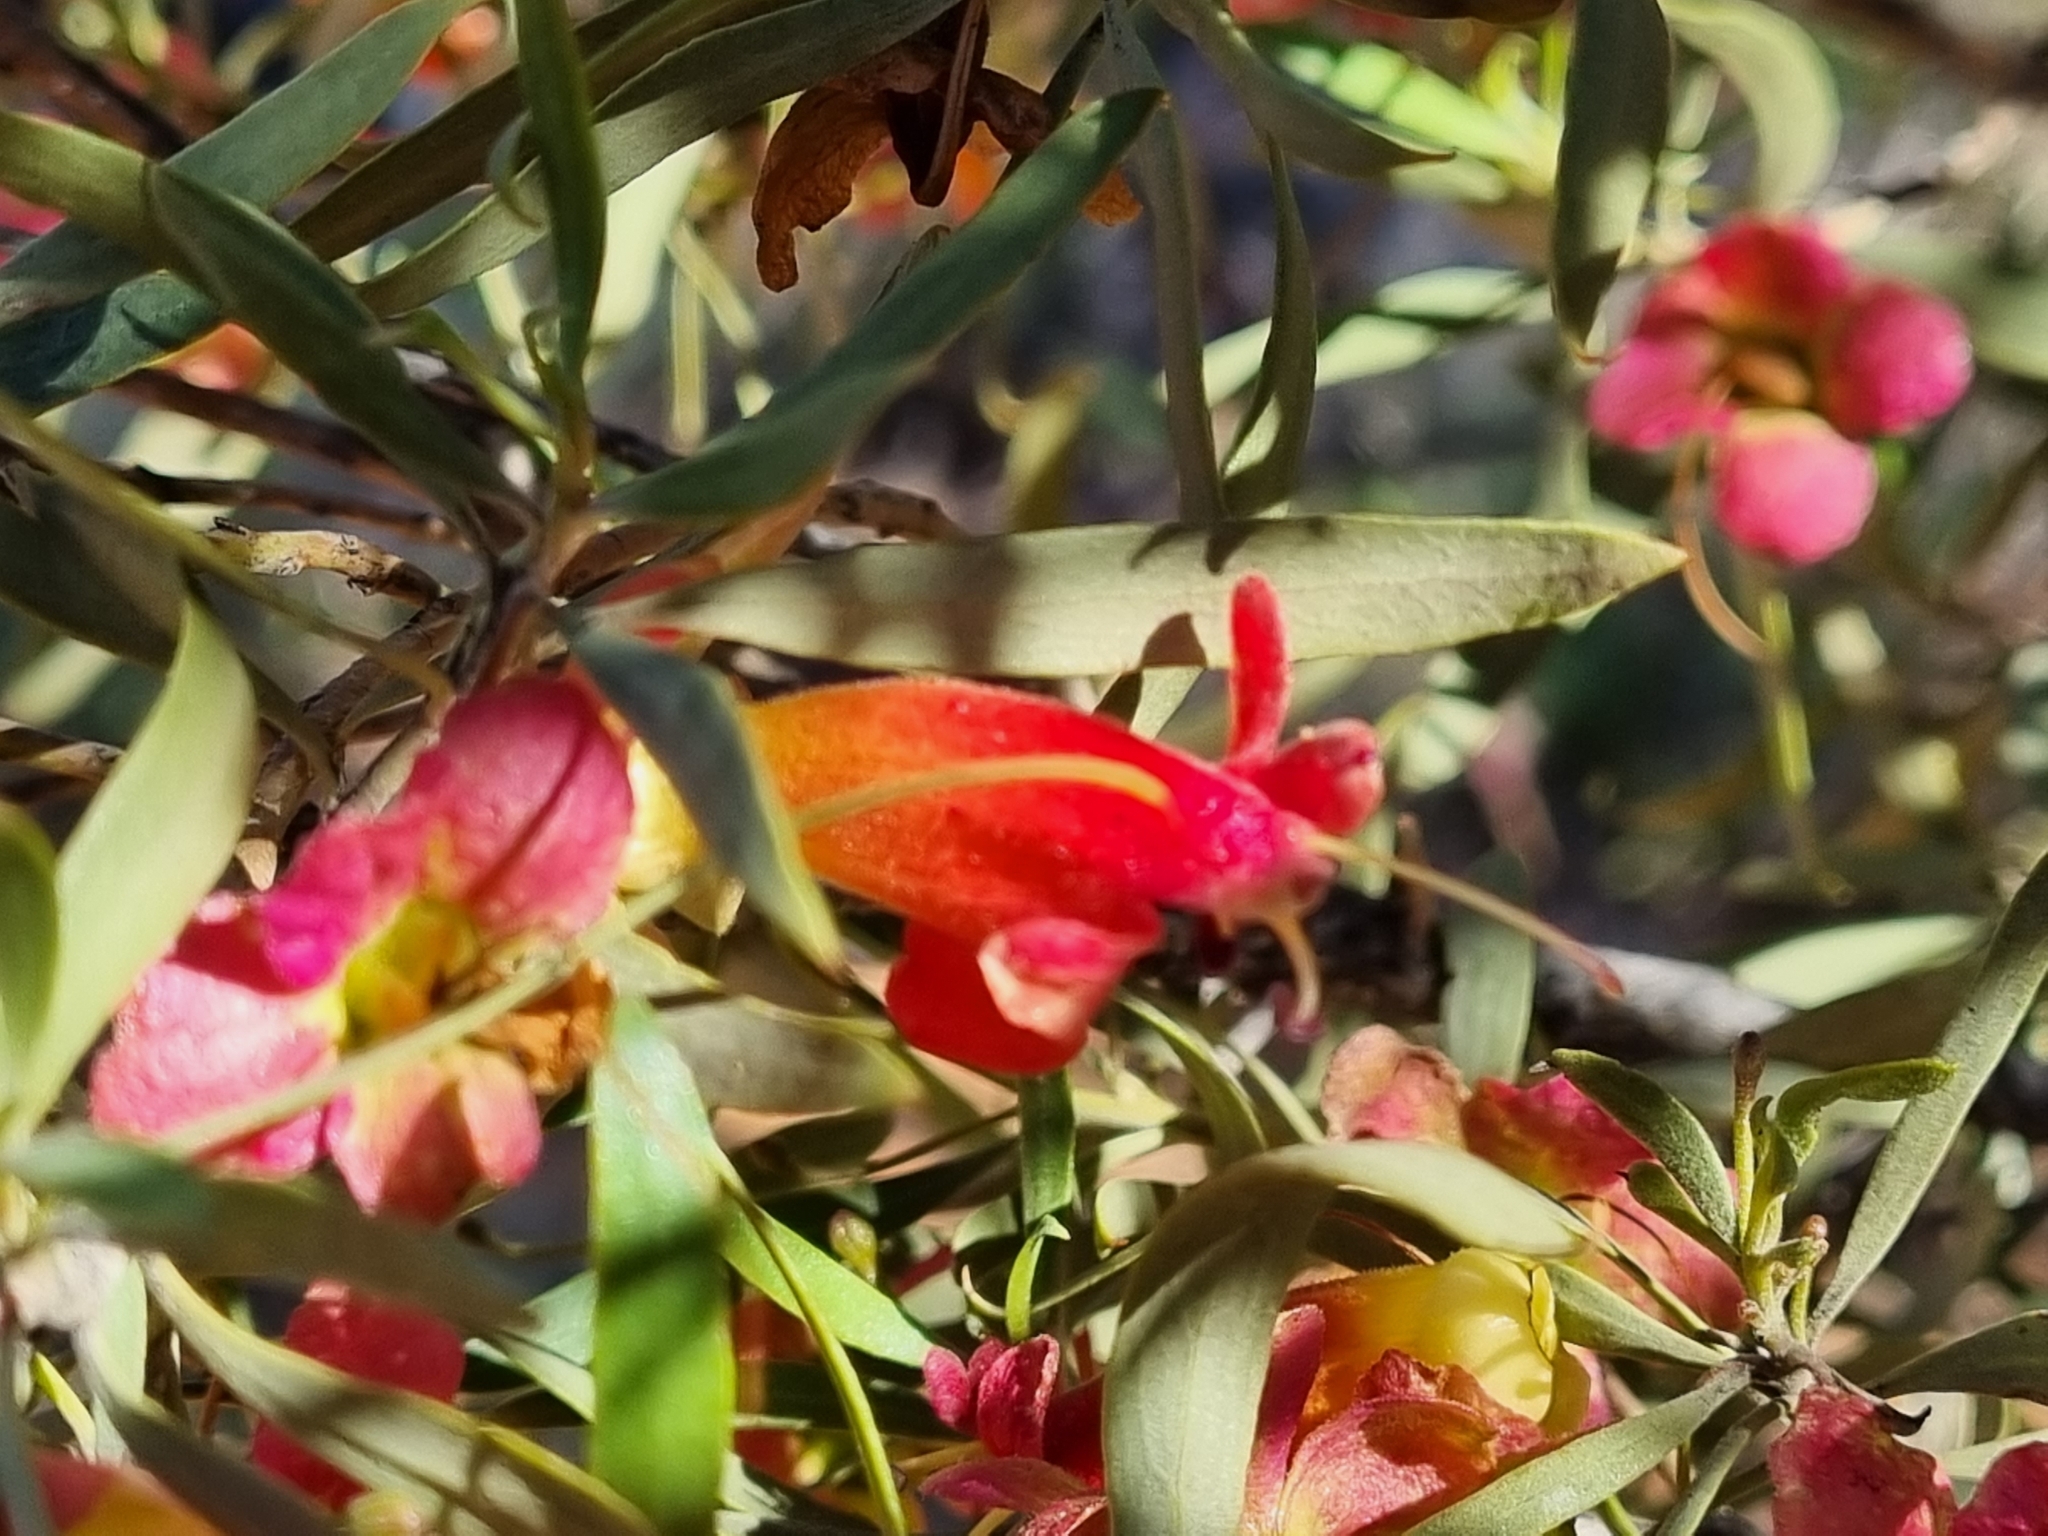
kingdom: Plantae
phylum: Tracheophyta
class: Magnoliopsida
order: Lamiales
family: Scrophulariaceae
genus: Eremophila
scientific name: Eremophila neglecta
